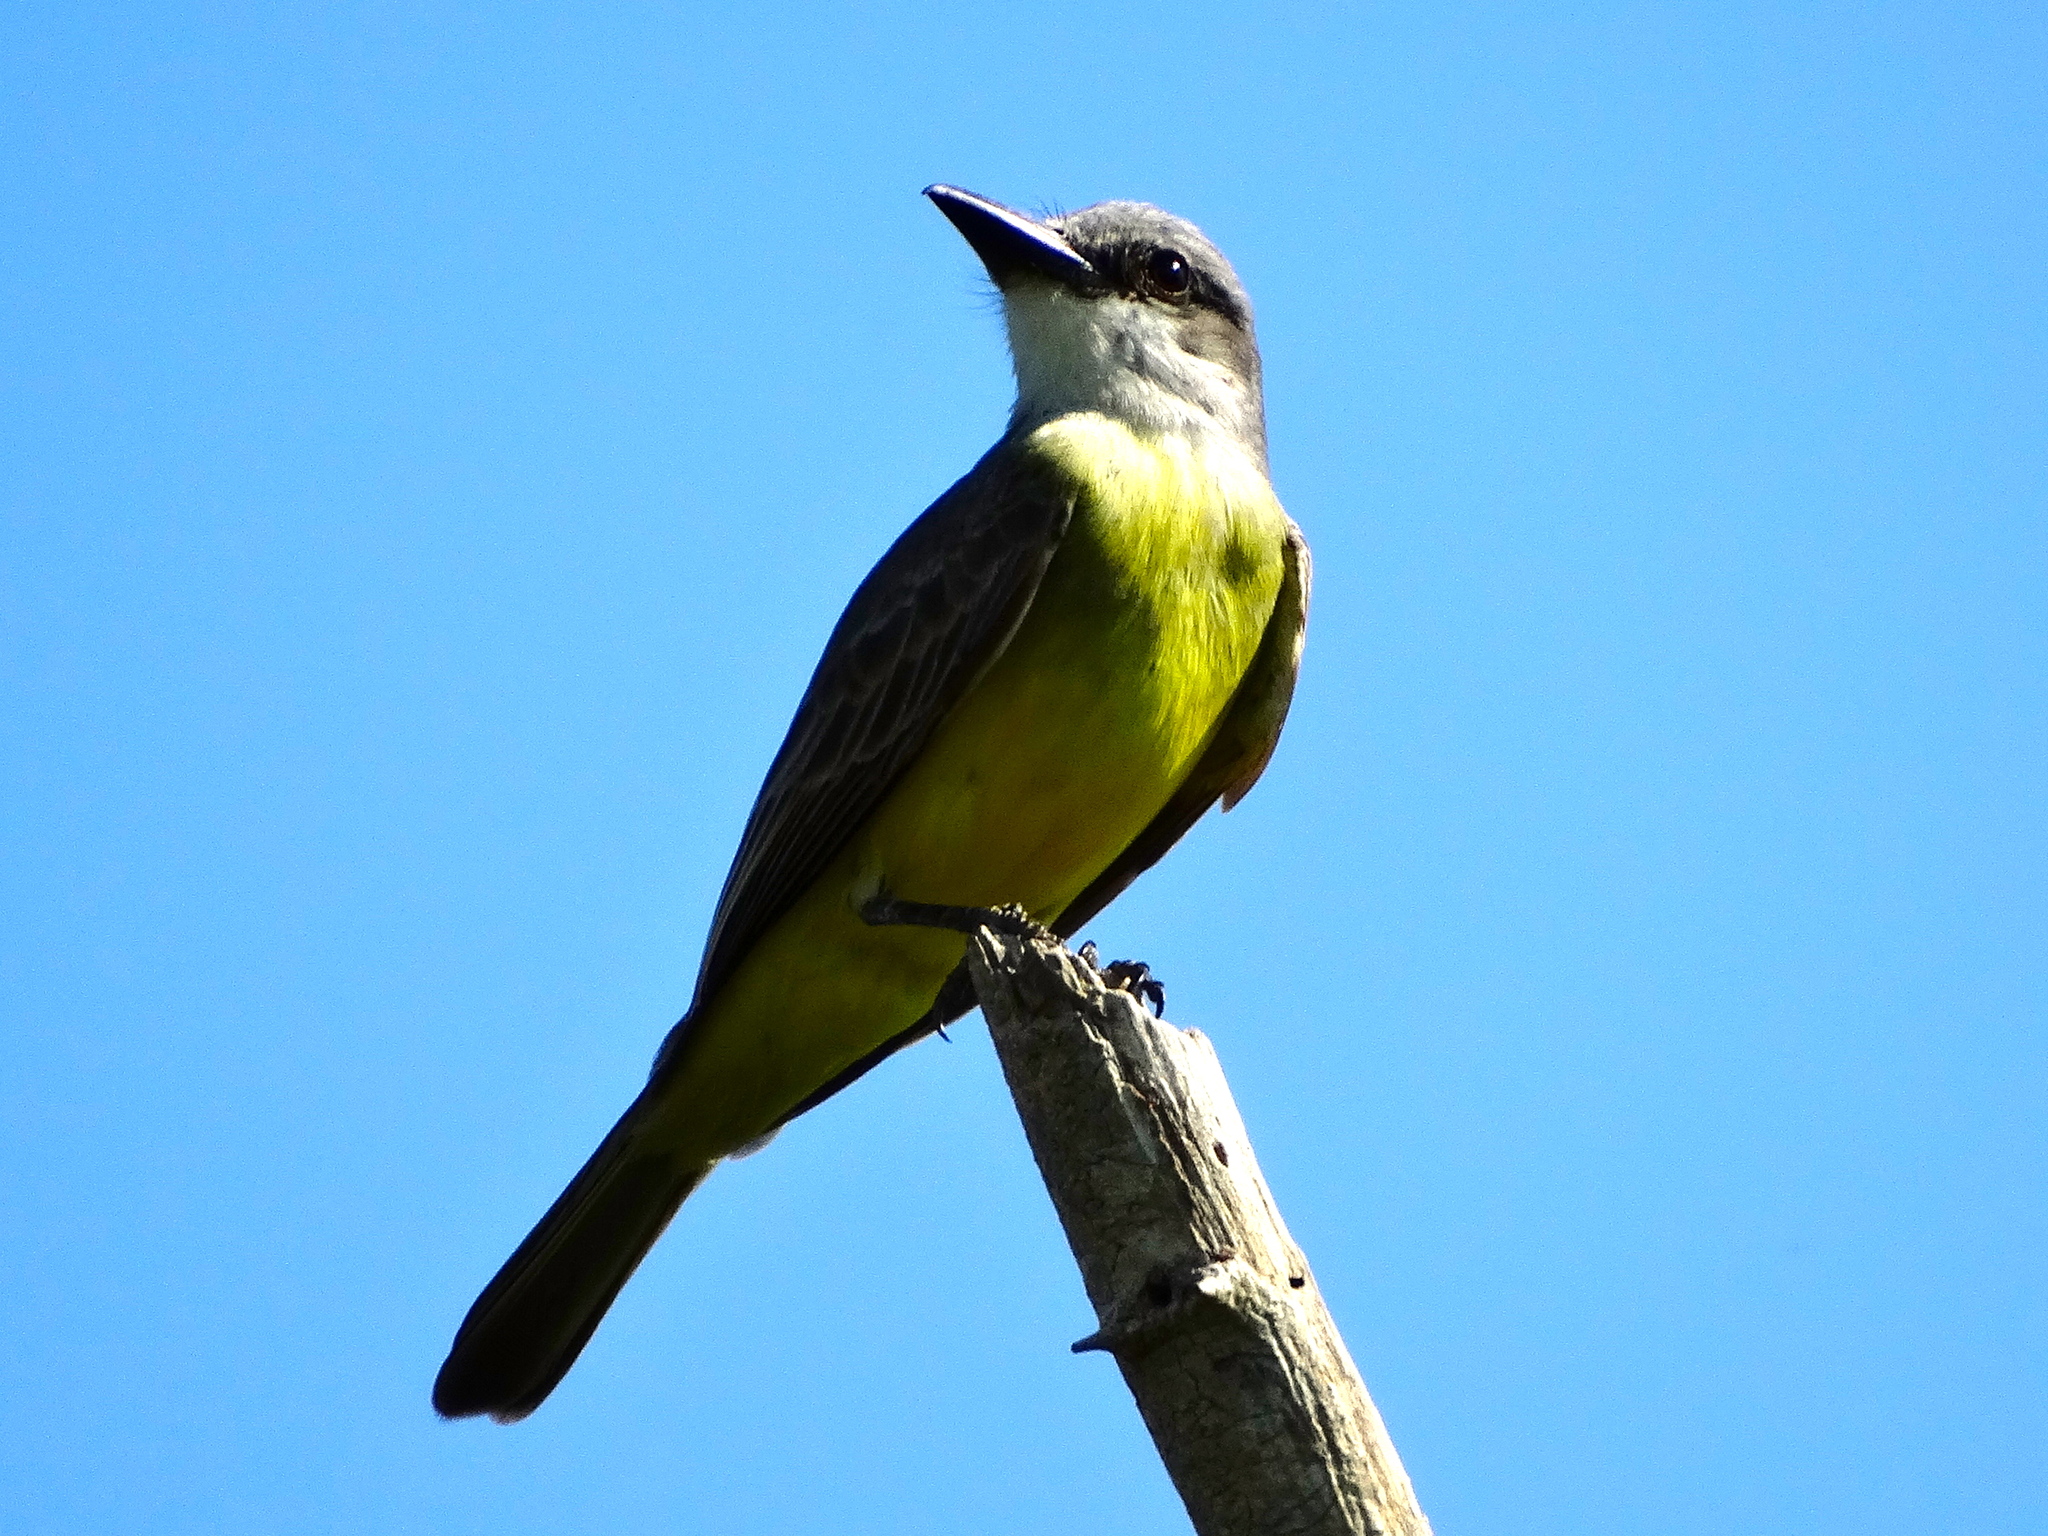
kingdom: Animalia
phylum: Chordata
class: Aves
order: Passeriformes
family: Tyrannidae
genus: Tyrannus
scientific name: Tyrannus melancholicus
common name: Tropical kingbird
